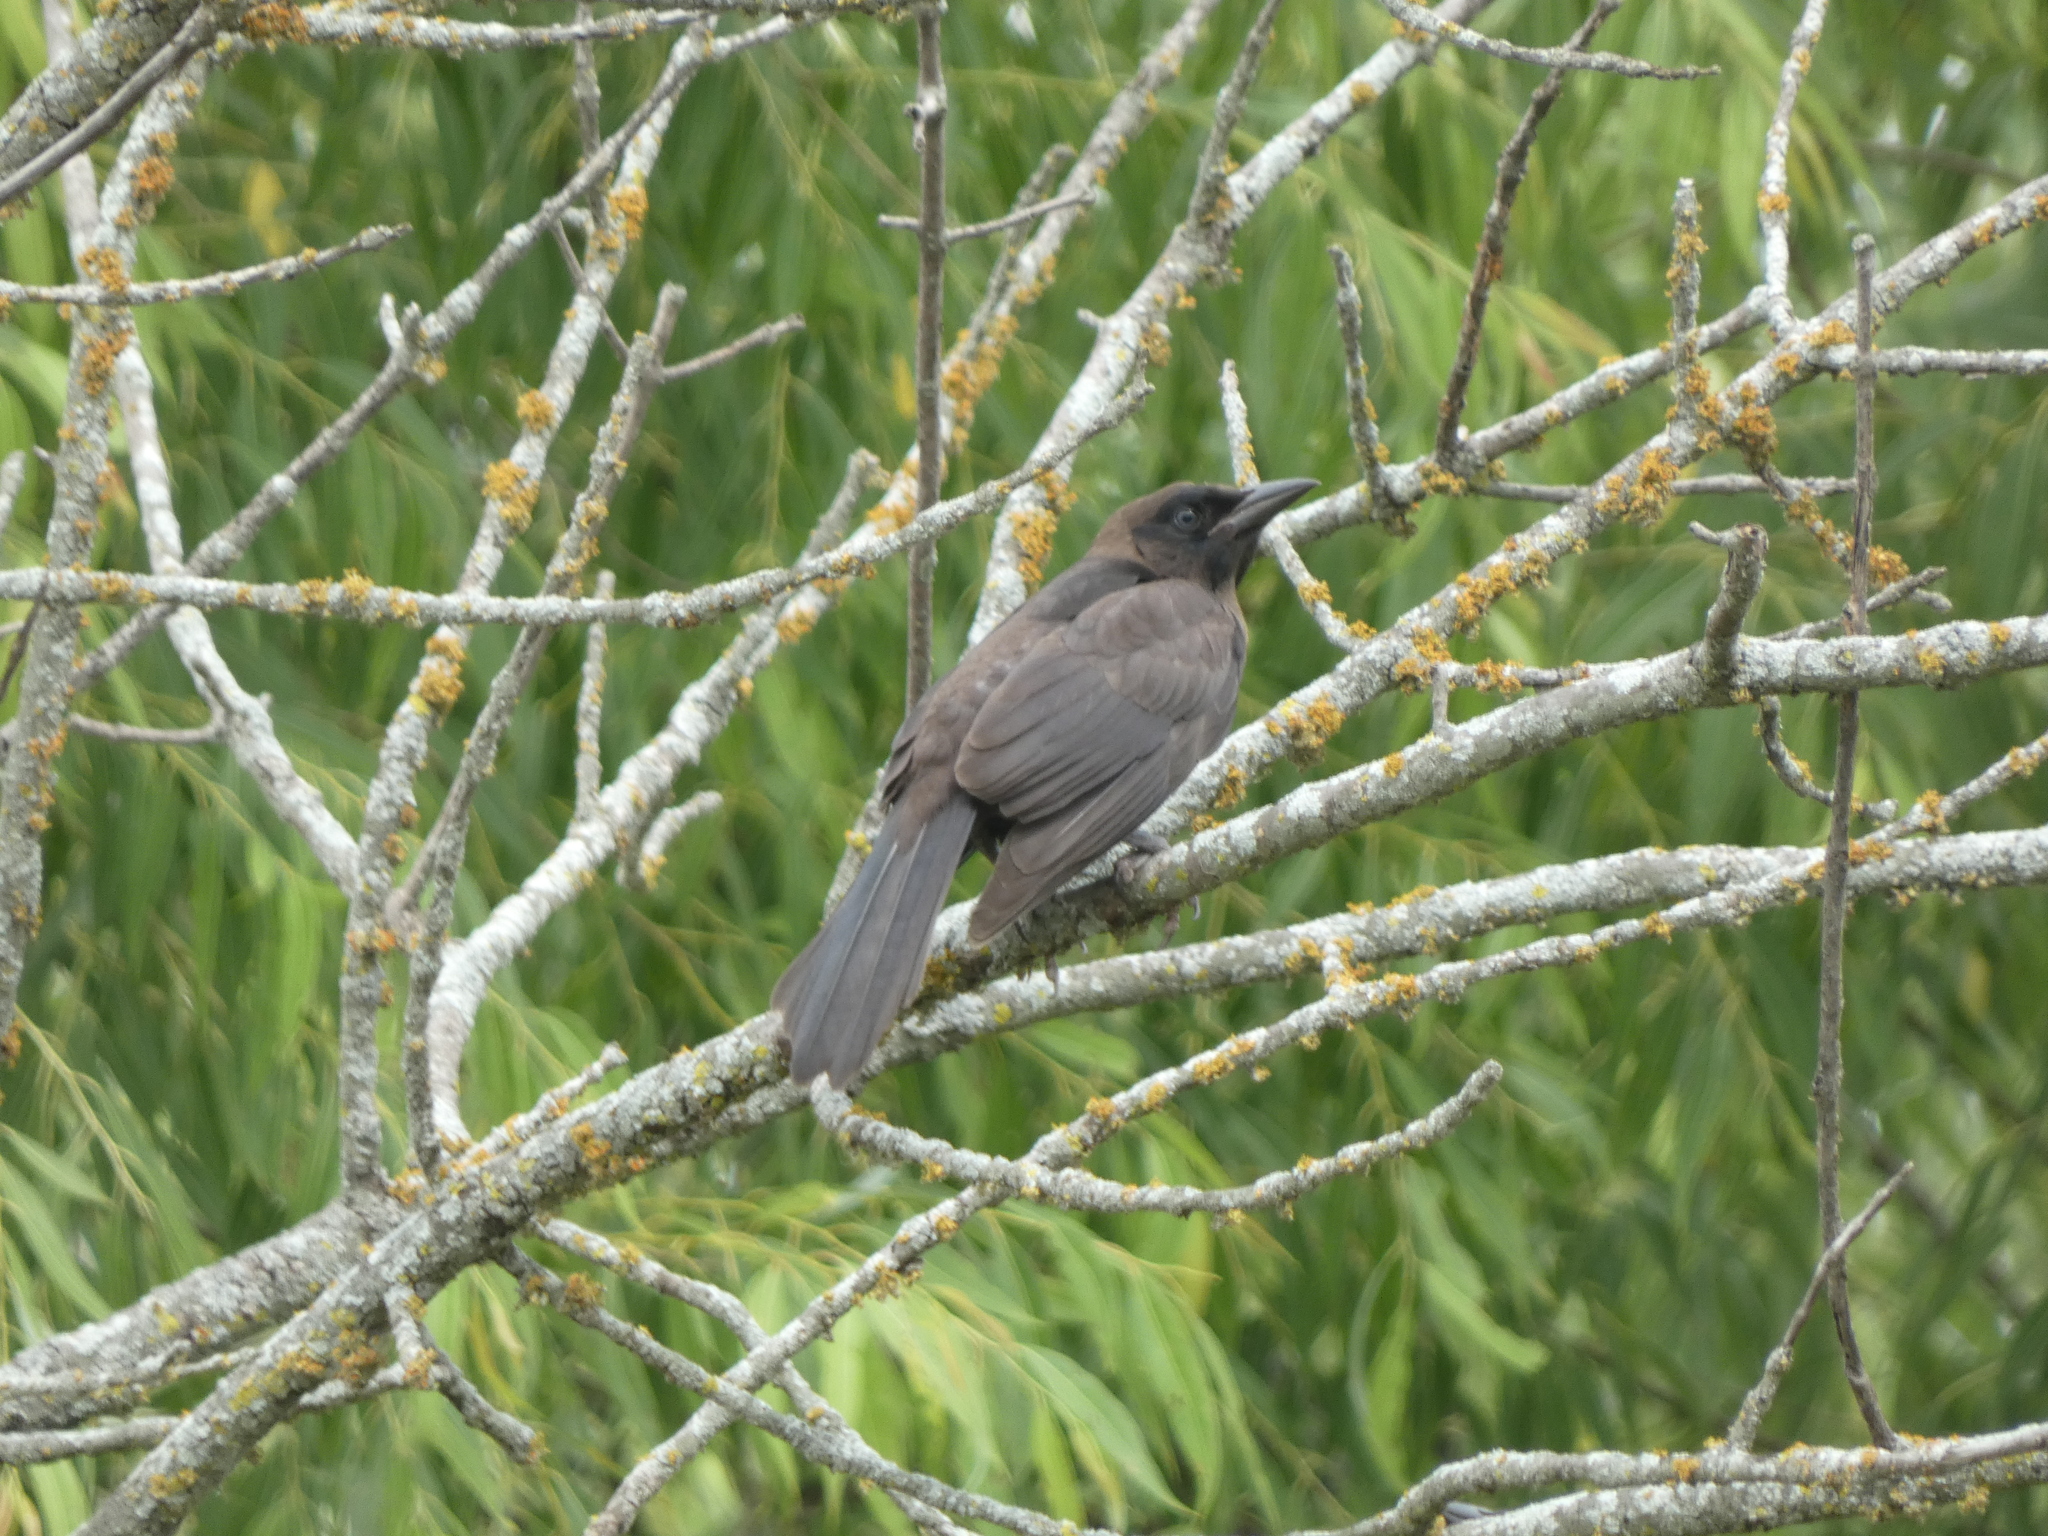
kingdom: Animalia
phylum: Chordata
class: Aves
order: Passeriformes
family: Icteridae
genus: Quiscalus
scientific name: Quiscalus quiscula
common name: Common grackle
